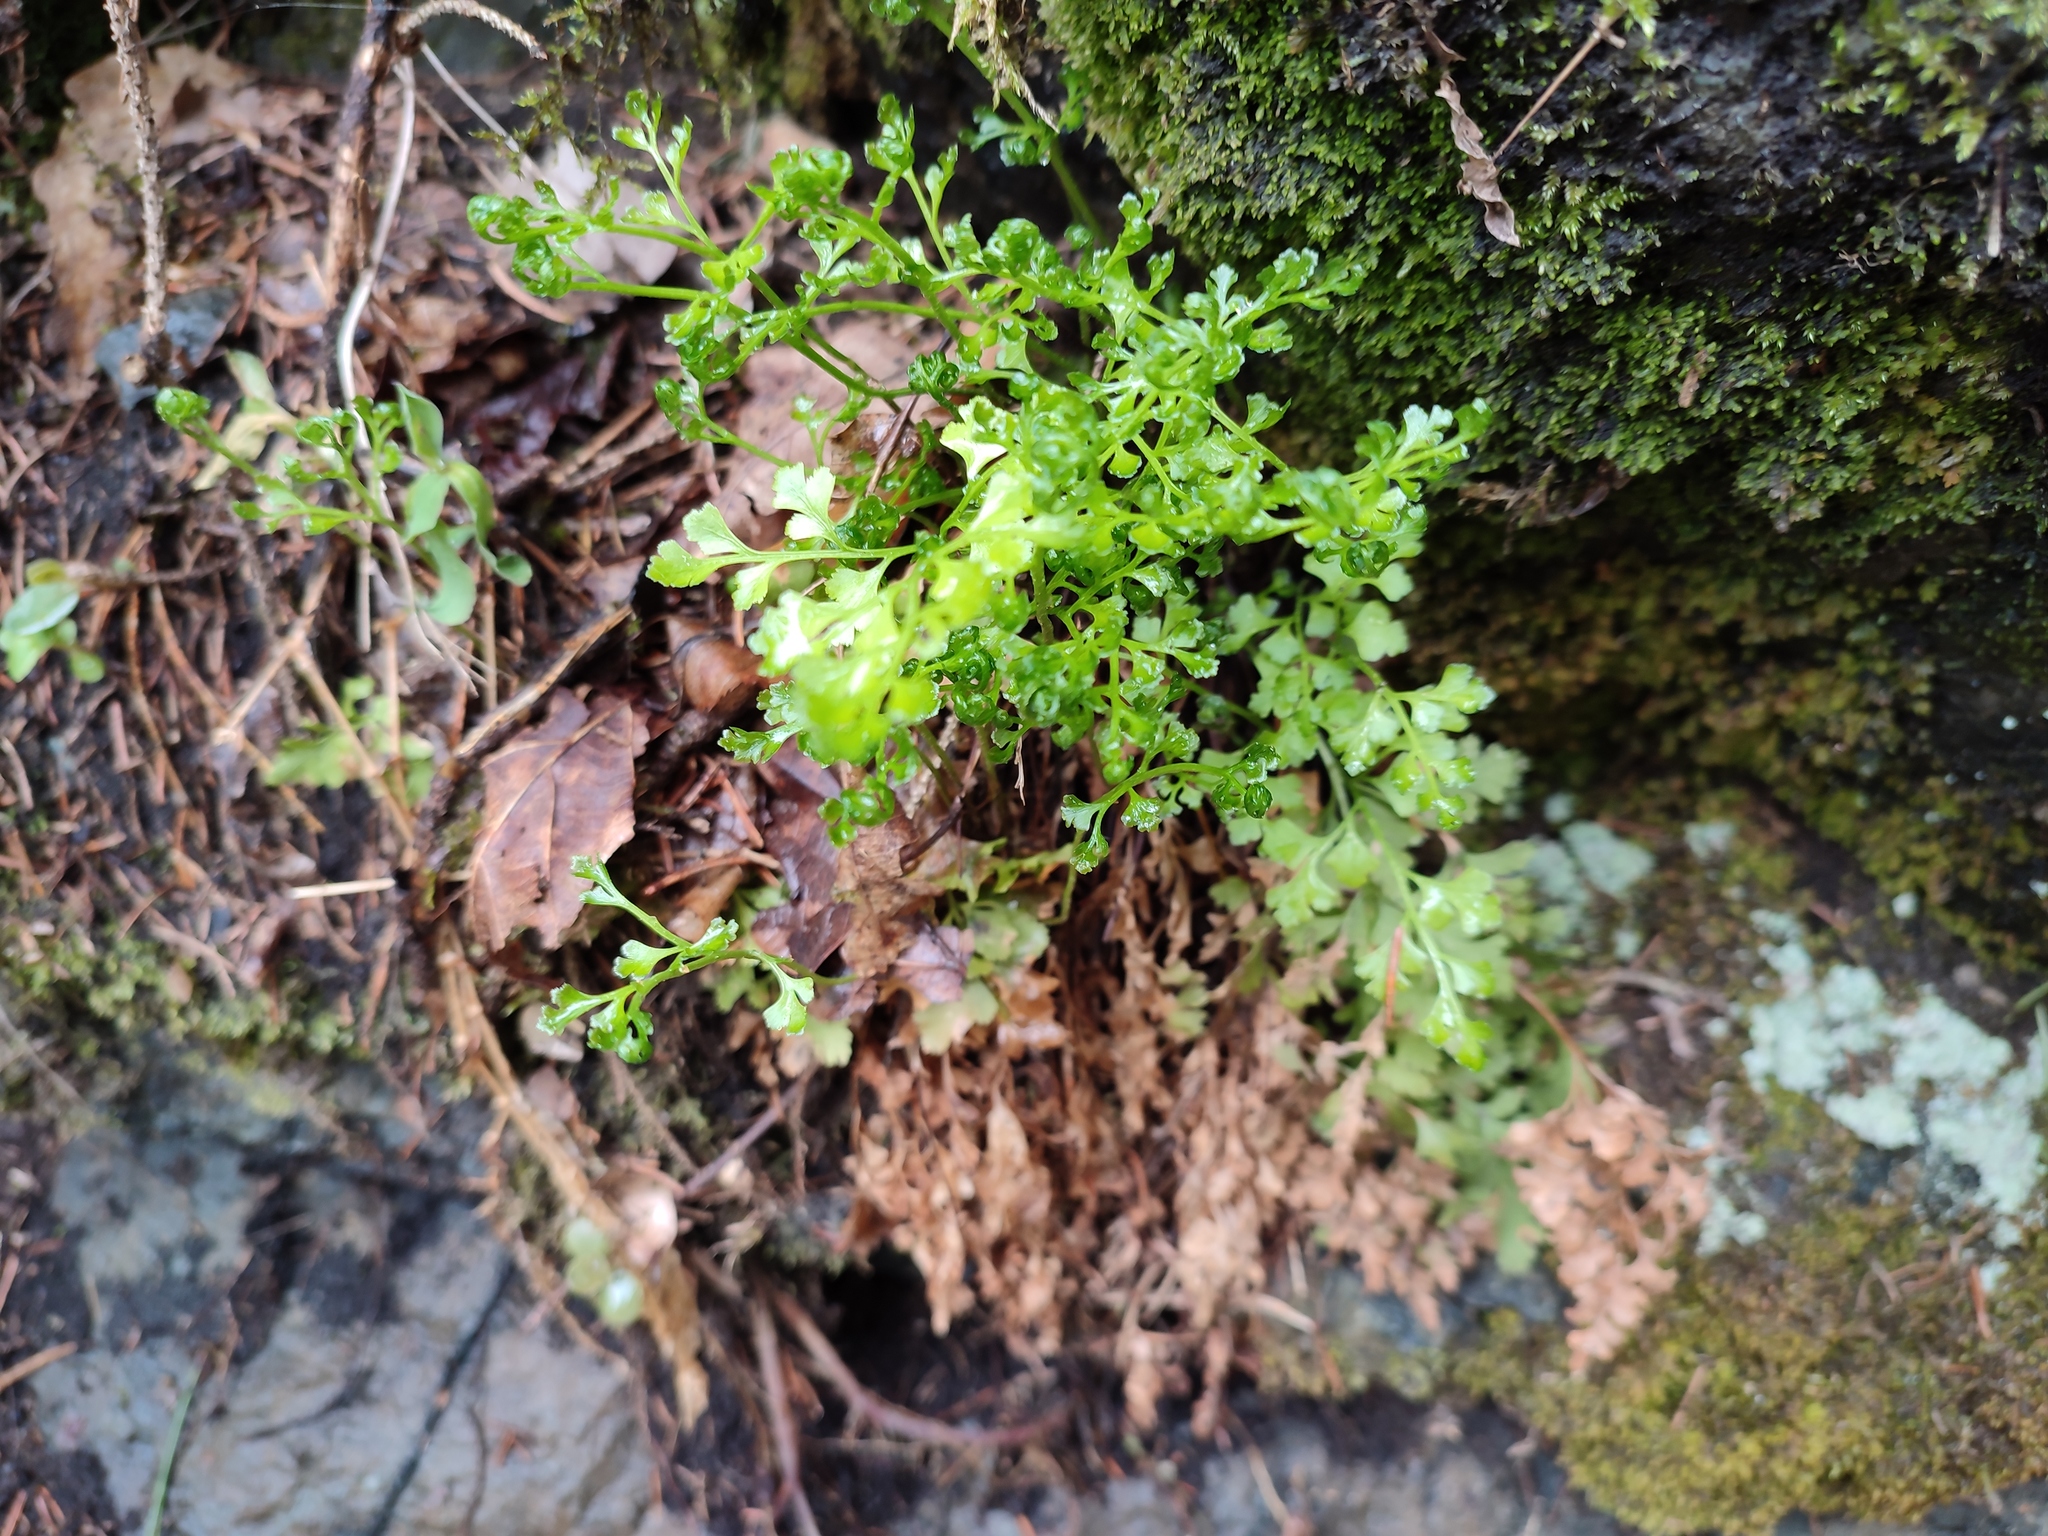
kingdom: Plantae
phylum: Tracheophyta
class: Polypodiopsida
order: Polypodiales
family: Aspleniaceae
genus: Asplenium
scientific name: Asplenium cuneifolium
